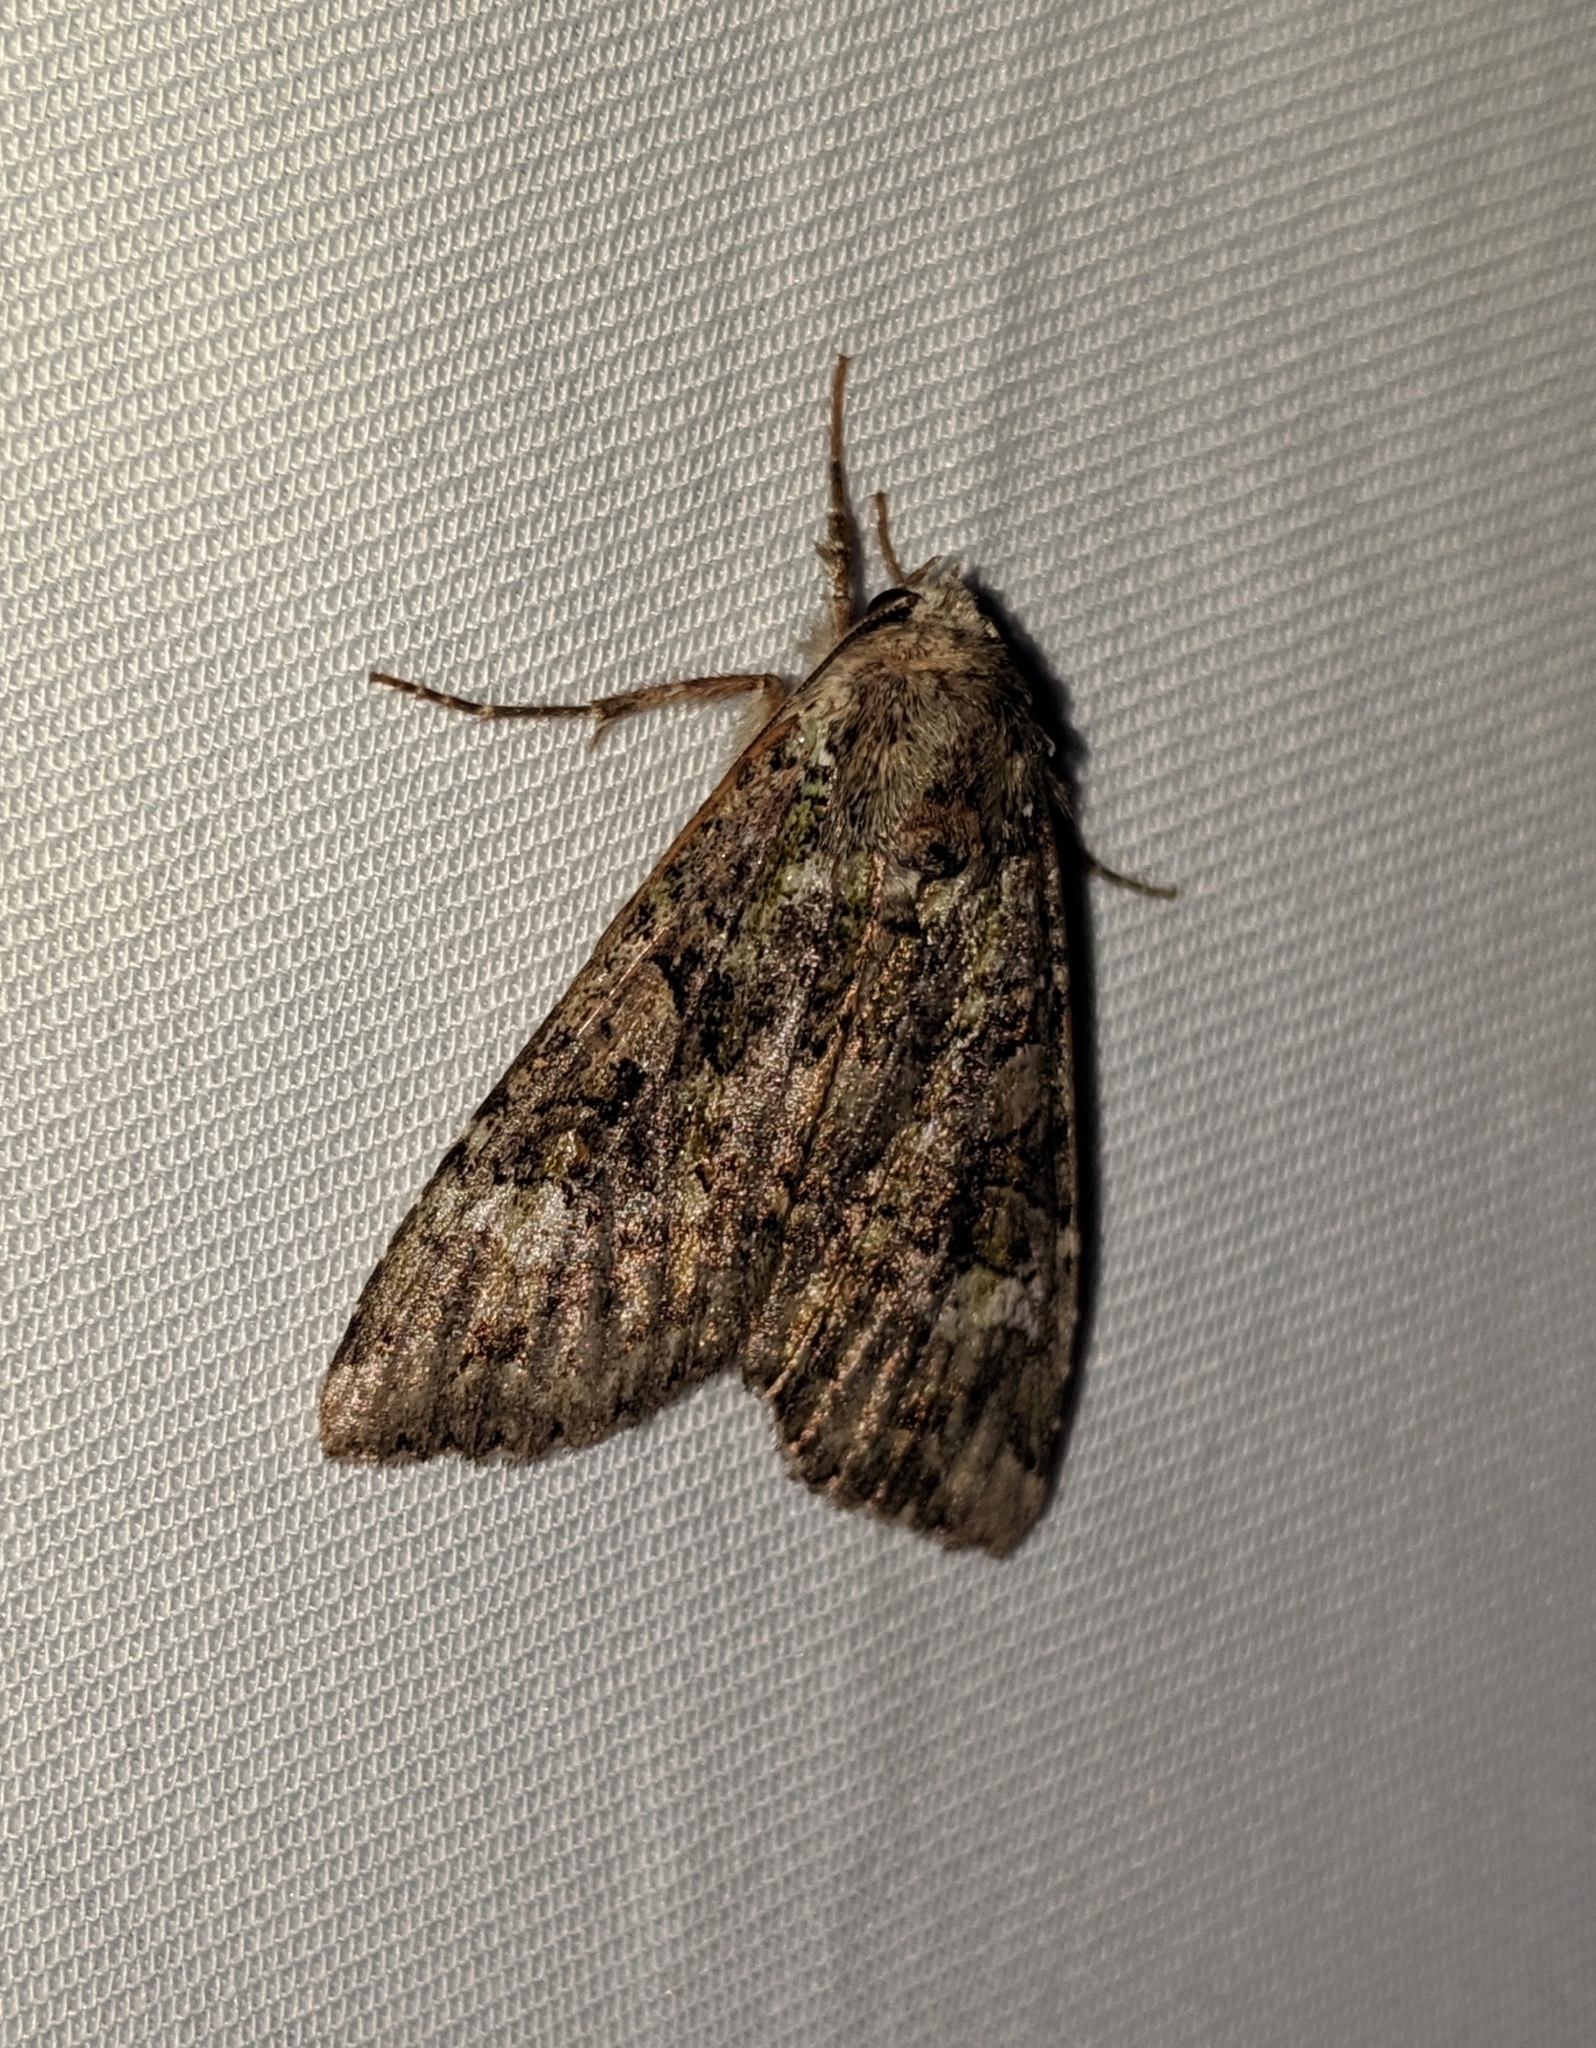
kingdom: Animalia
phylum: Arthropoda
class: Insecta
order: Lepidoptera
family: Noctuidae
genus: Anaplectoides
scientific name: Anaplectoides prasina
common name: Green arches
